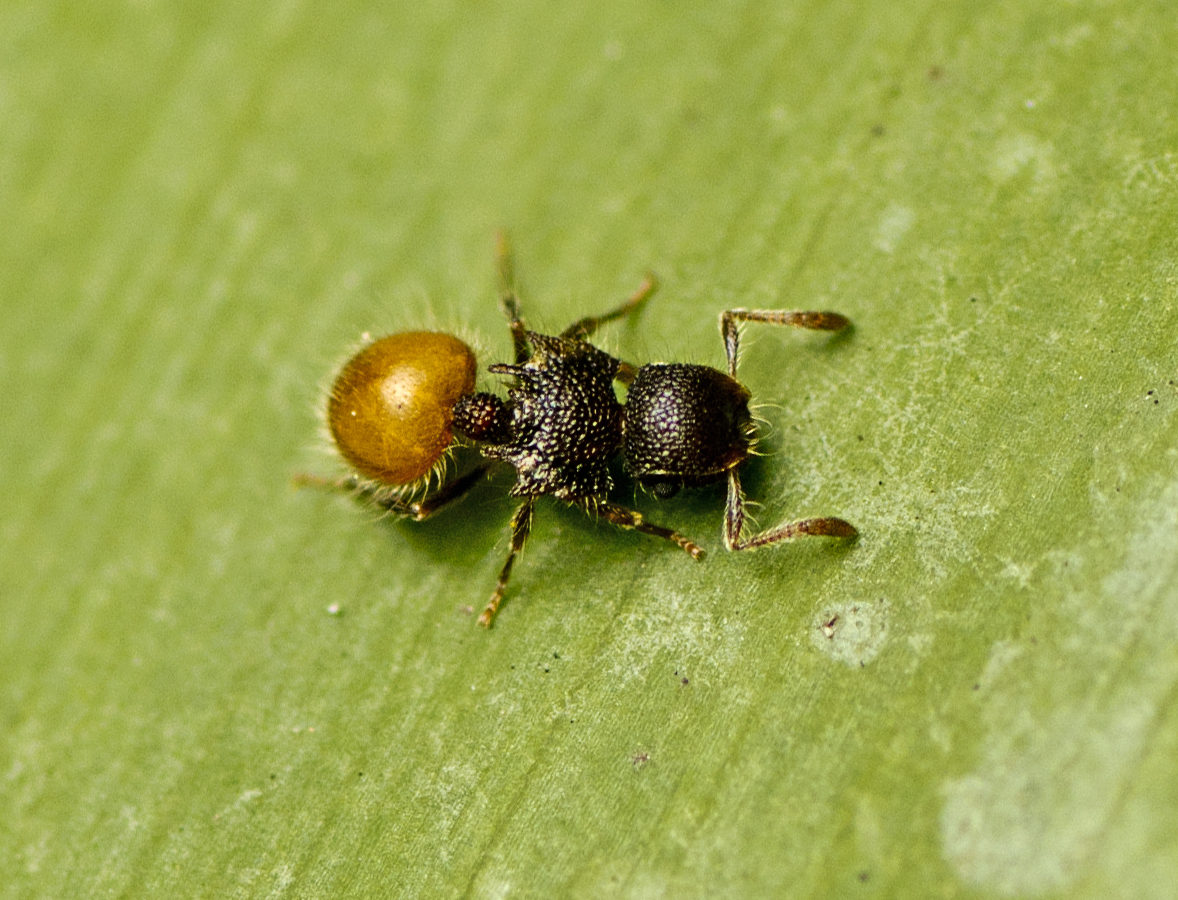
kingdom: Animalia
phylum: Arthropoda
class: Insecta
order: Hymenoptera
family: Formicidae
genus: Meranoplus
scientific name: Meranoplus hirsutus
